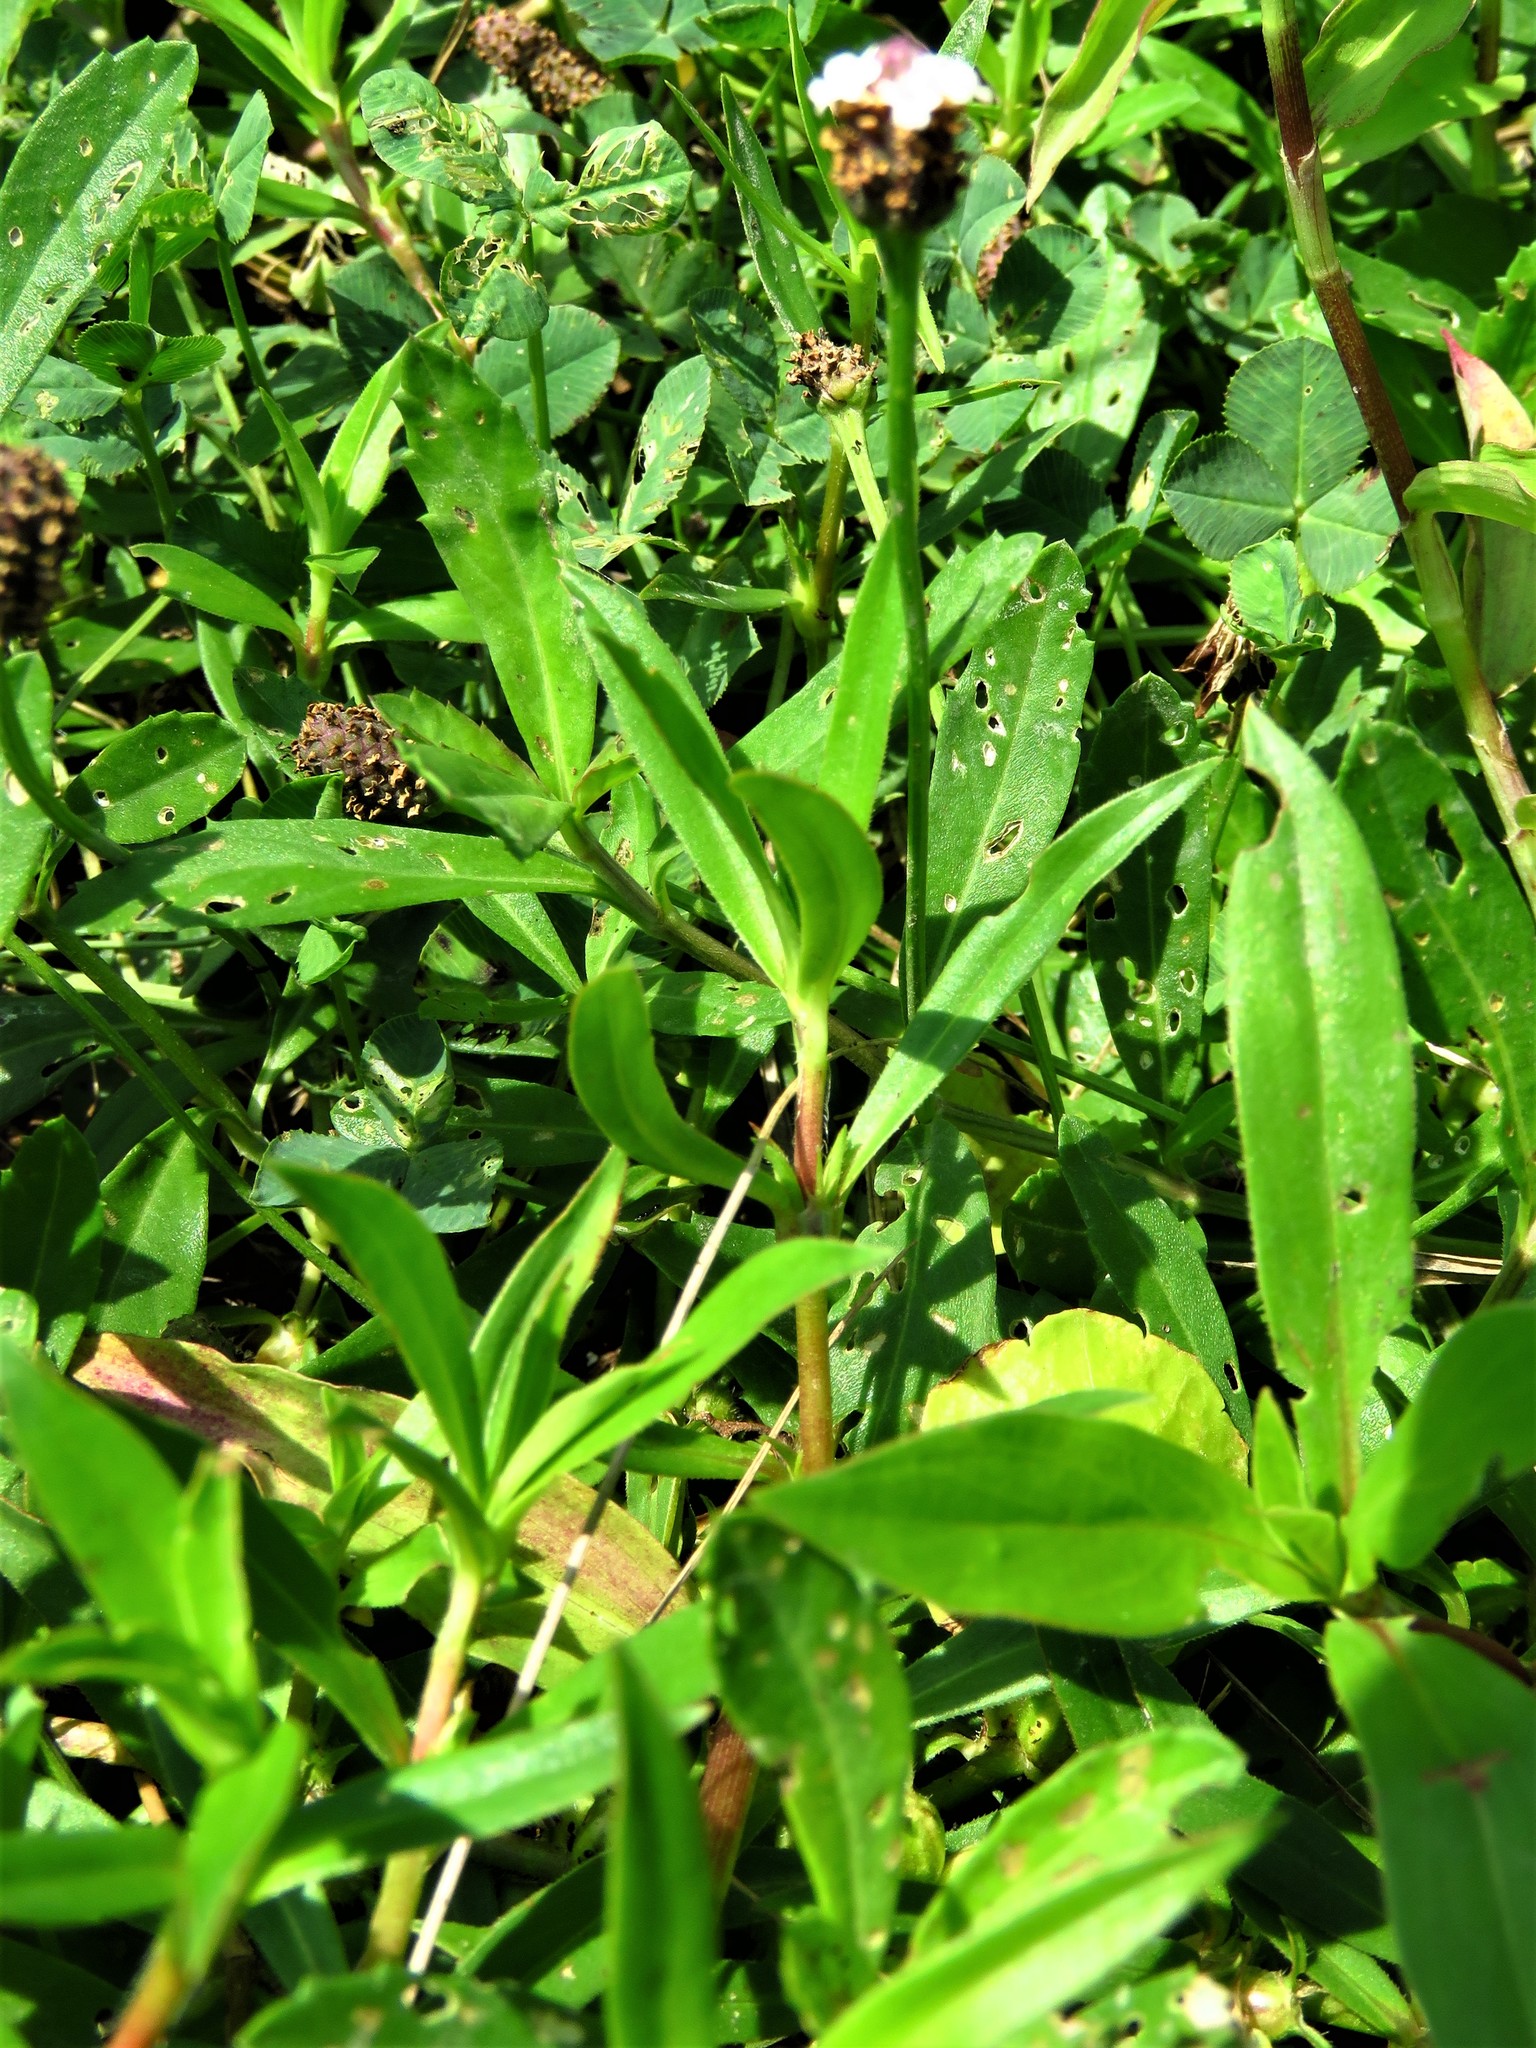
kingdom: Plantae
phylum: Tracheophyta
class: Magnoliopsida
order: Lamiales
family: Verbenaceae
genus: Phyla
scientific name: Phyla nodiflora
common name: Frogfruit
